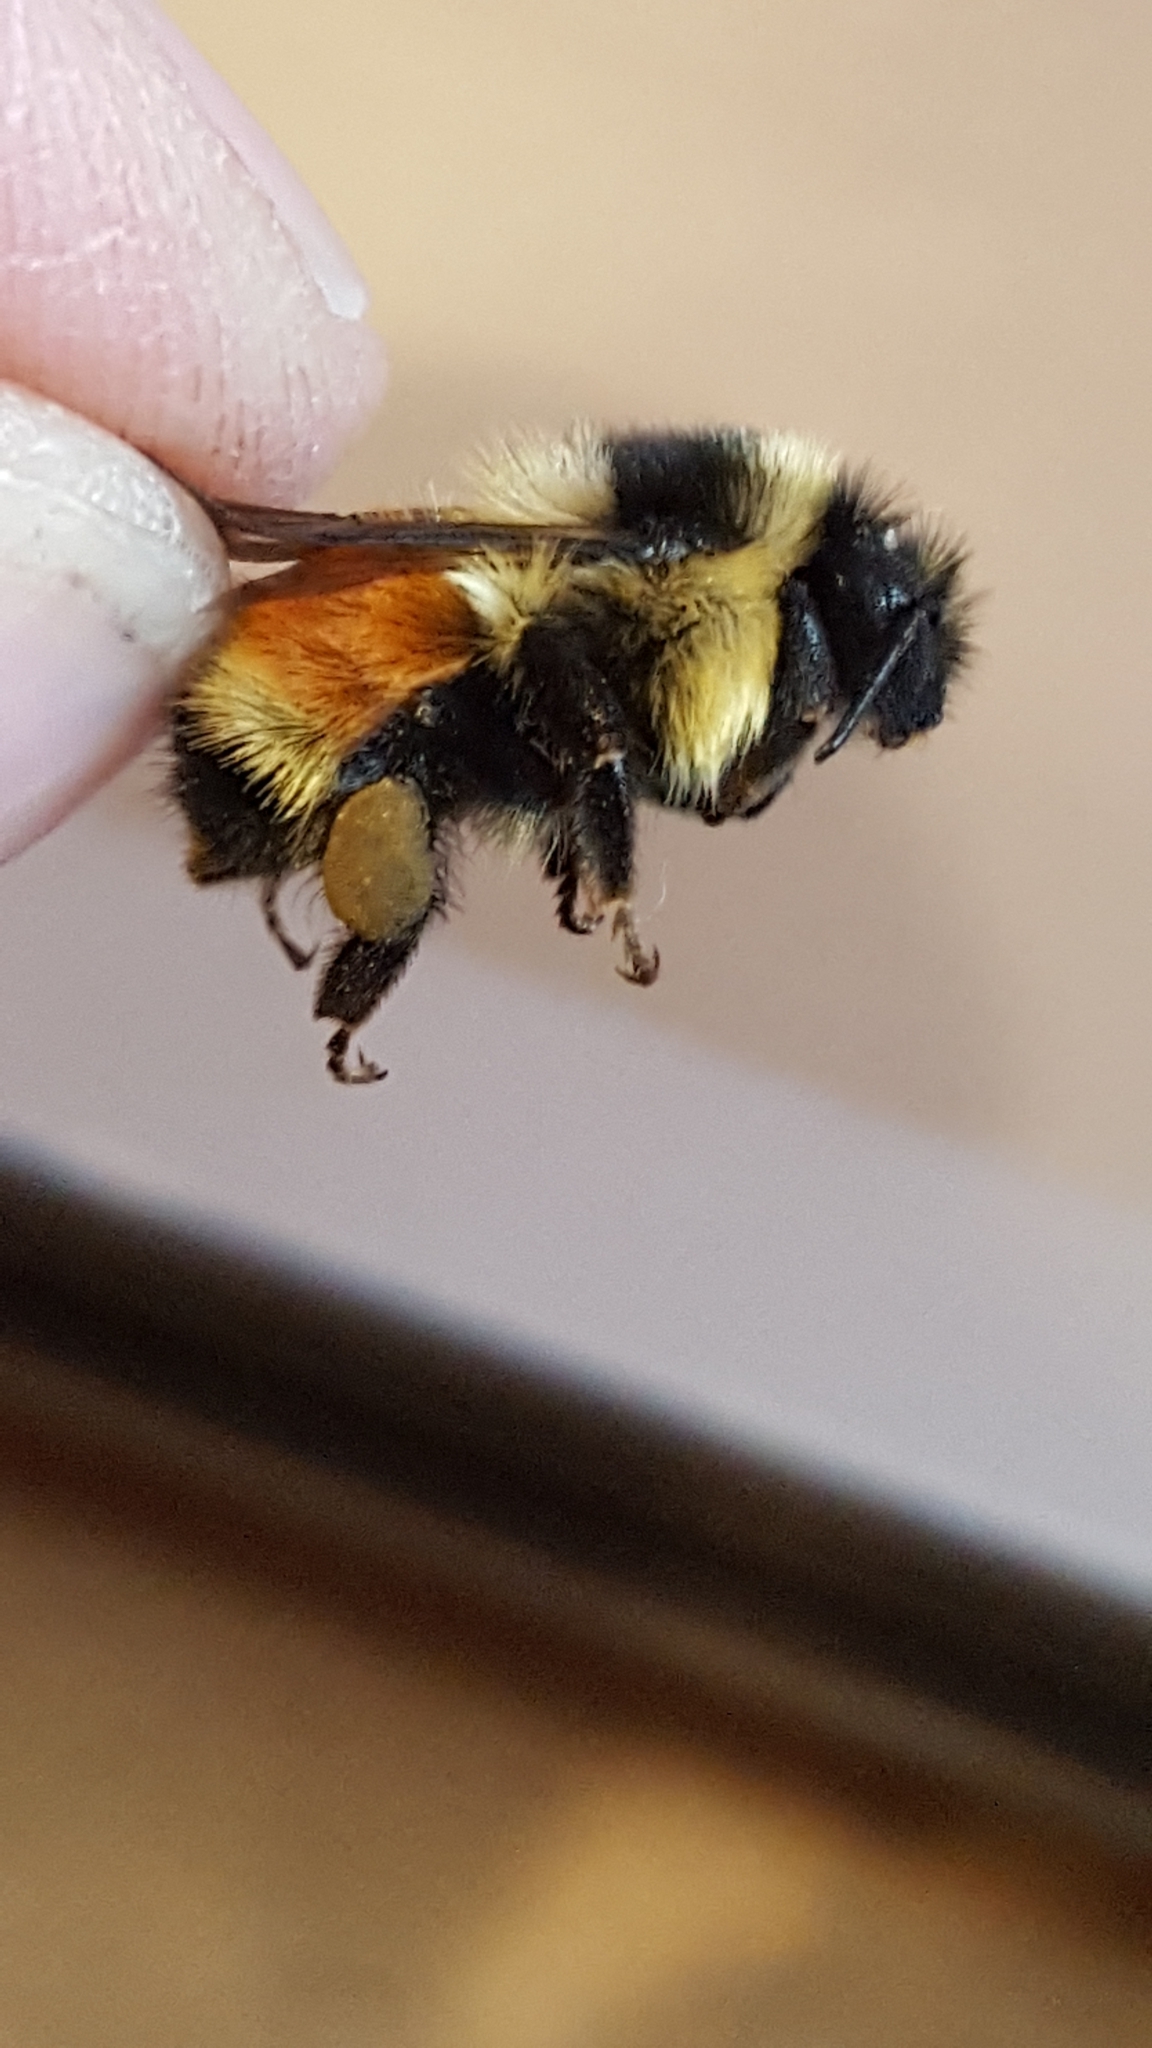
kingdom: Animalia
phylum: Arthropoda
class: Insecta
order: Hymenoptera
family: Apidae
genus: Bombus
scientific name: Bombus ternarius
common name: Tri-colored bumble bee
